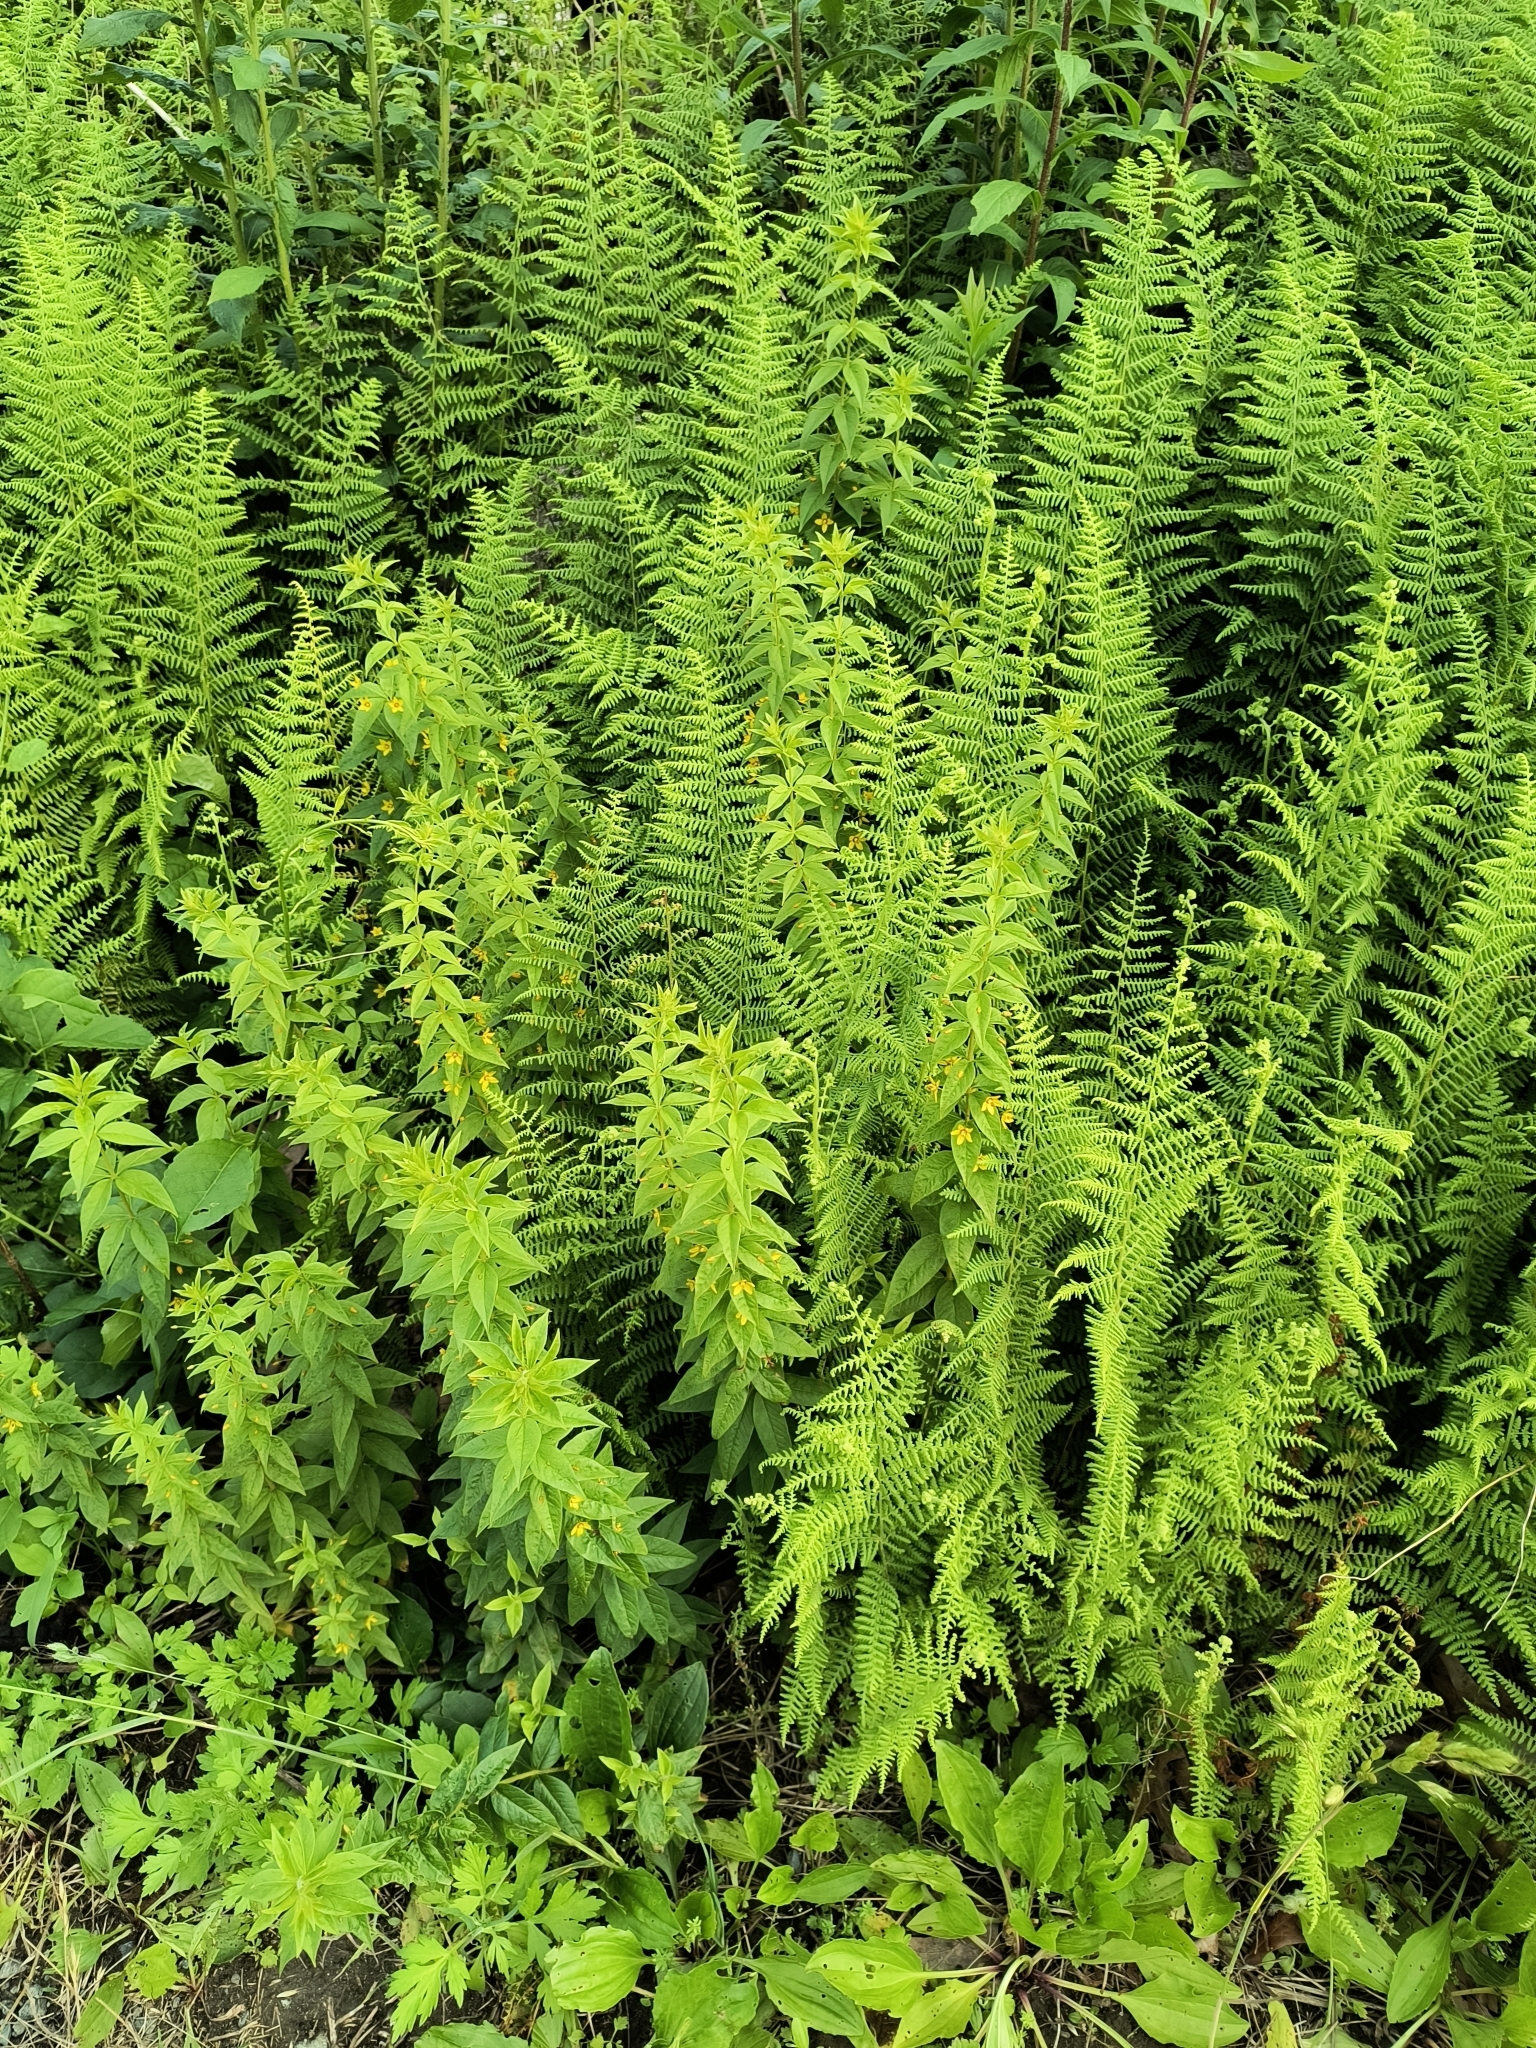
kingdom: Plantae
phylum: Tracheophyta
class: Magnoliopsida
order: Ericales
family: Primulaceae
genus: Lysimachia
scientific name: Lysimachia quadrifolia
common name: Whorled loosestrife
